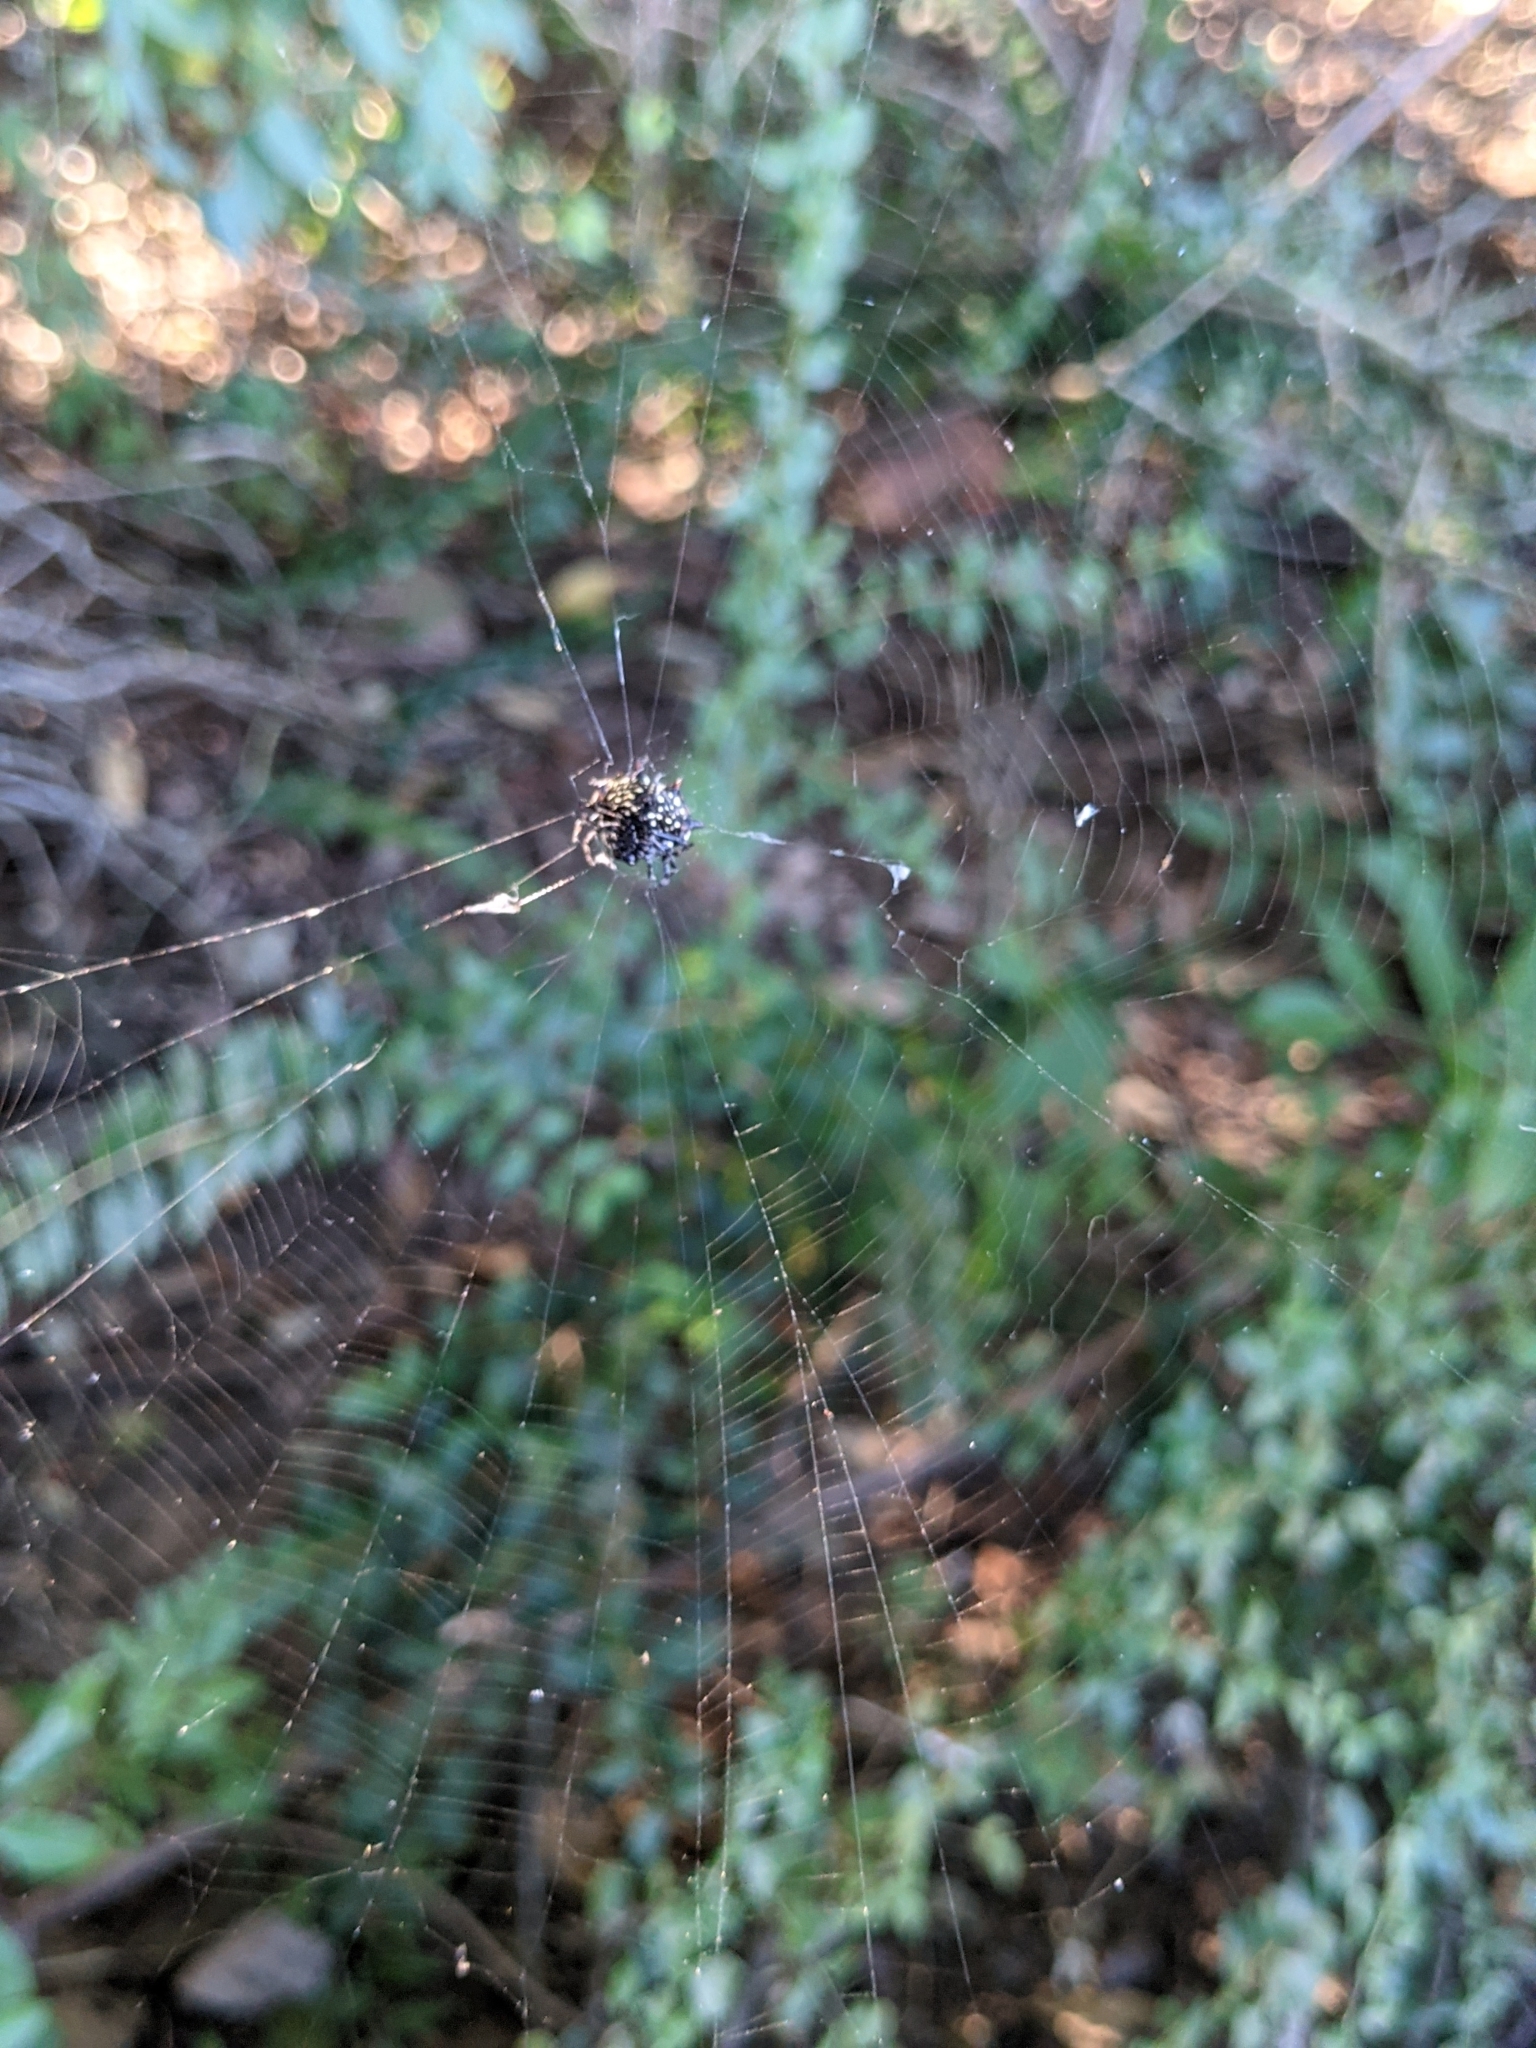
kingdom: Animalia
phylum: Arthropoda
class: Arachnida
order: Araneae
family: Araneidae
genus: Gasteracantha
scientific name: Gasteracantha cancriformis
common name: Orb weavers
